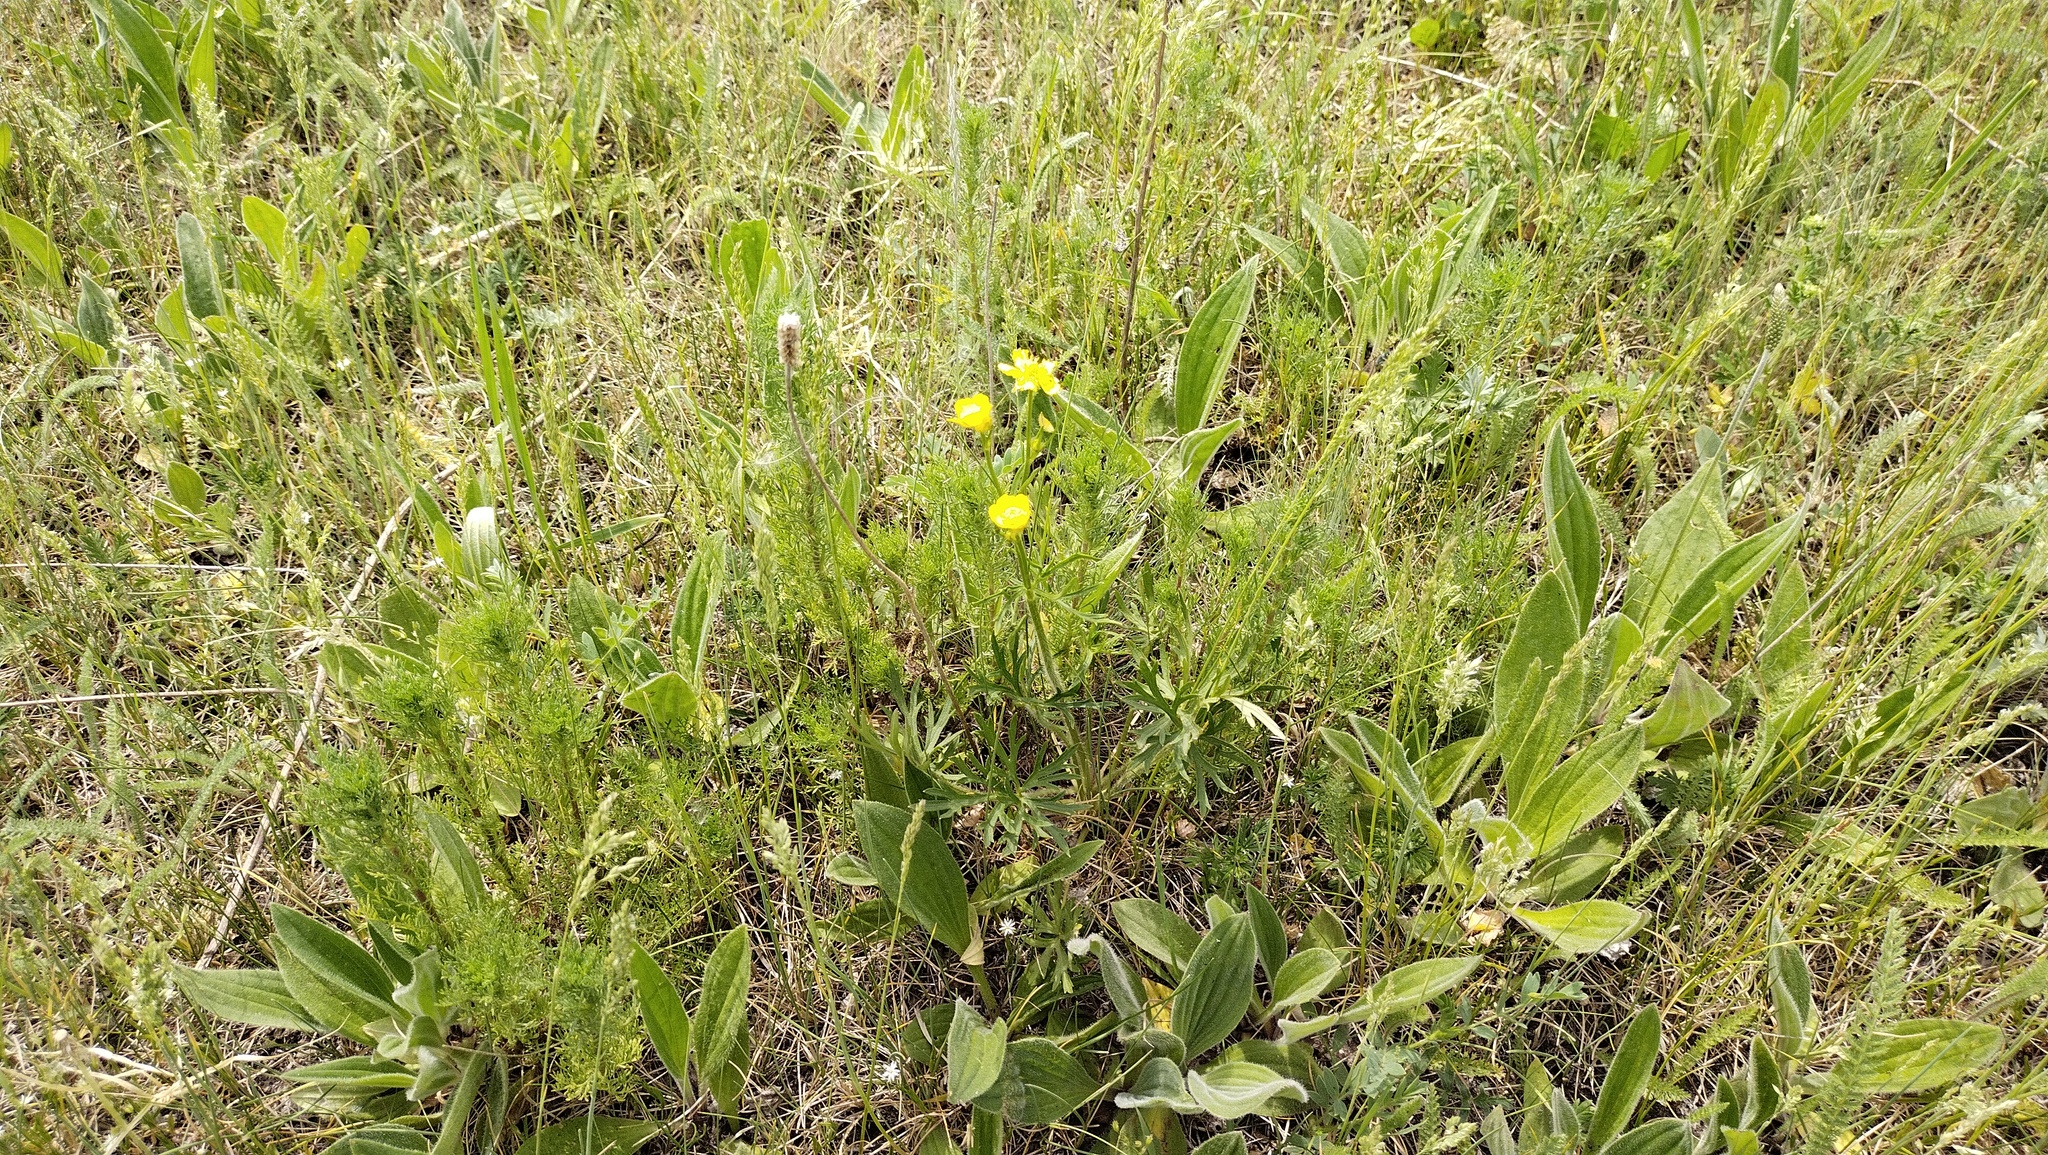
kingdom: Plantae
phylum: Tracheophyta
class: Magnoliopsida
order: Ranunculales
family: Ranunculaceae
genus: Ranunculus
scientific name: Ranunculus polyanthemos
